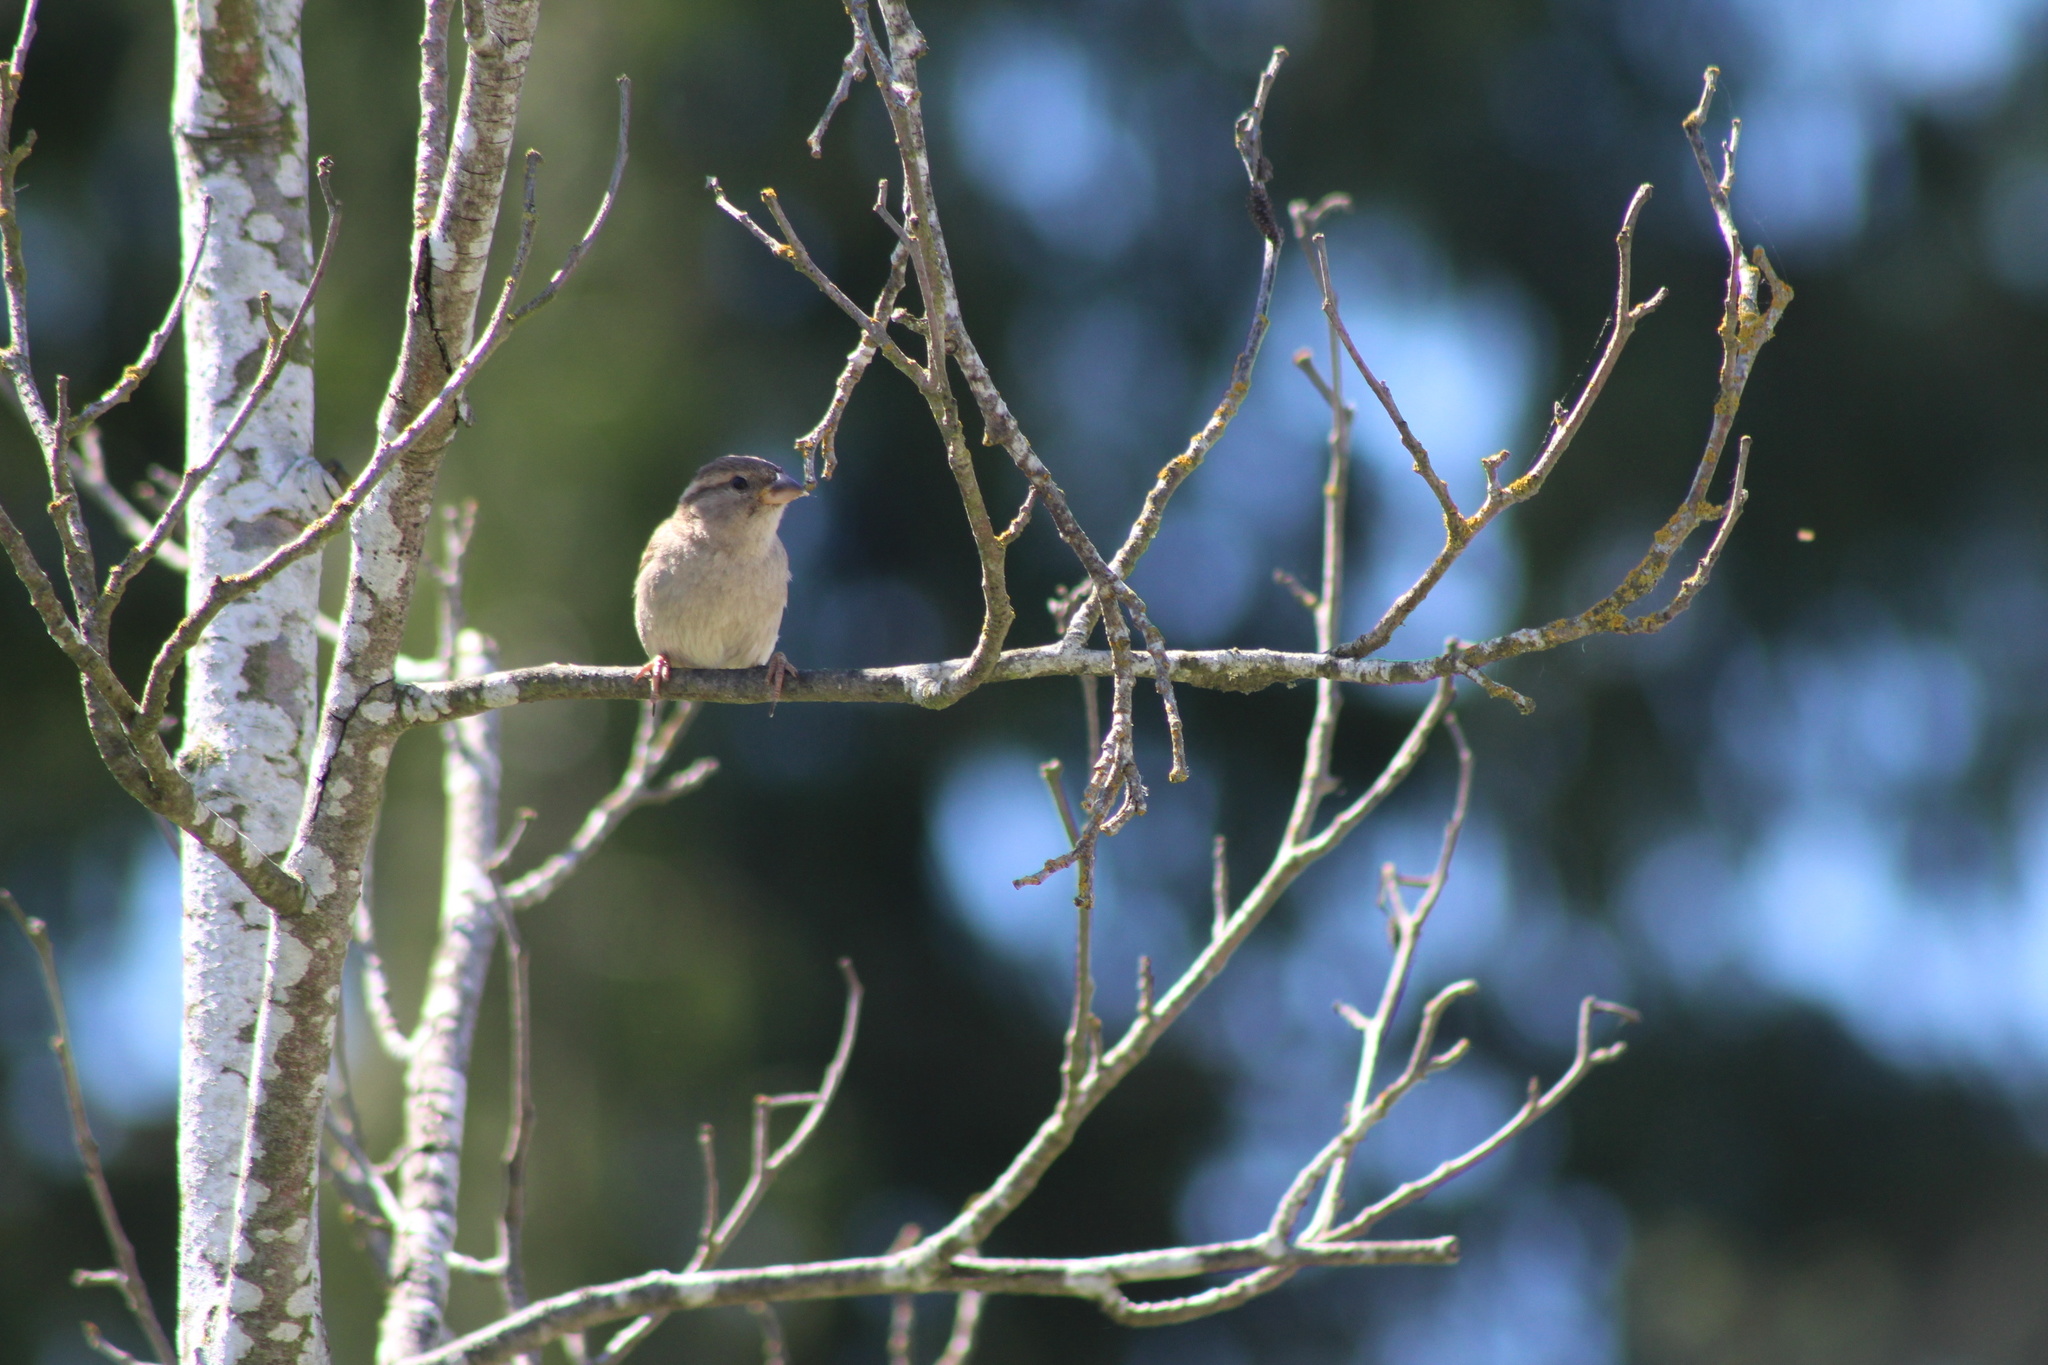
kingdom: Animalia
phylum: Chordata
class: Aves
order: Passeriformes
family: Passeridae
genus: Passer
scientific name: Passer domesticus
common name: House sparrow
